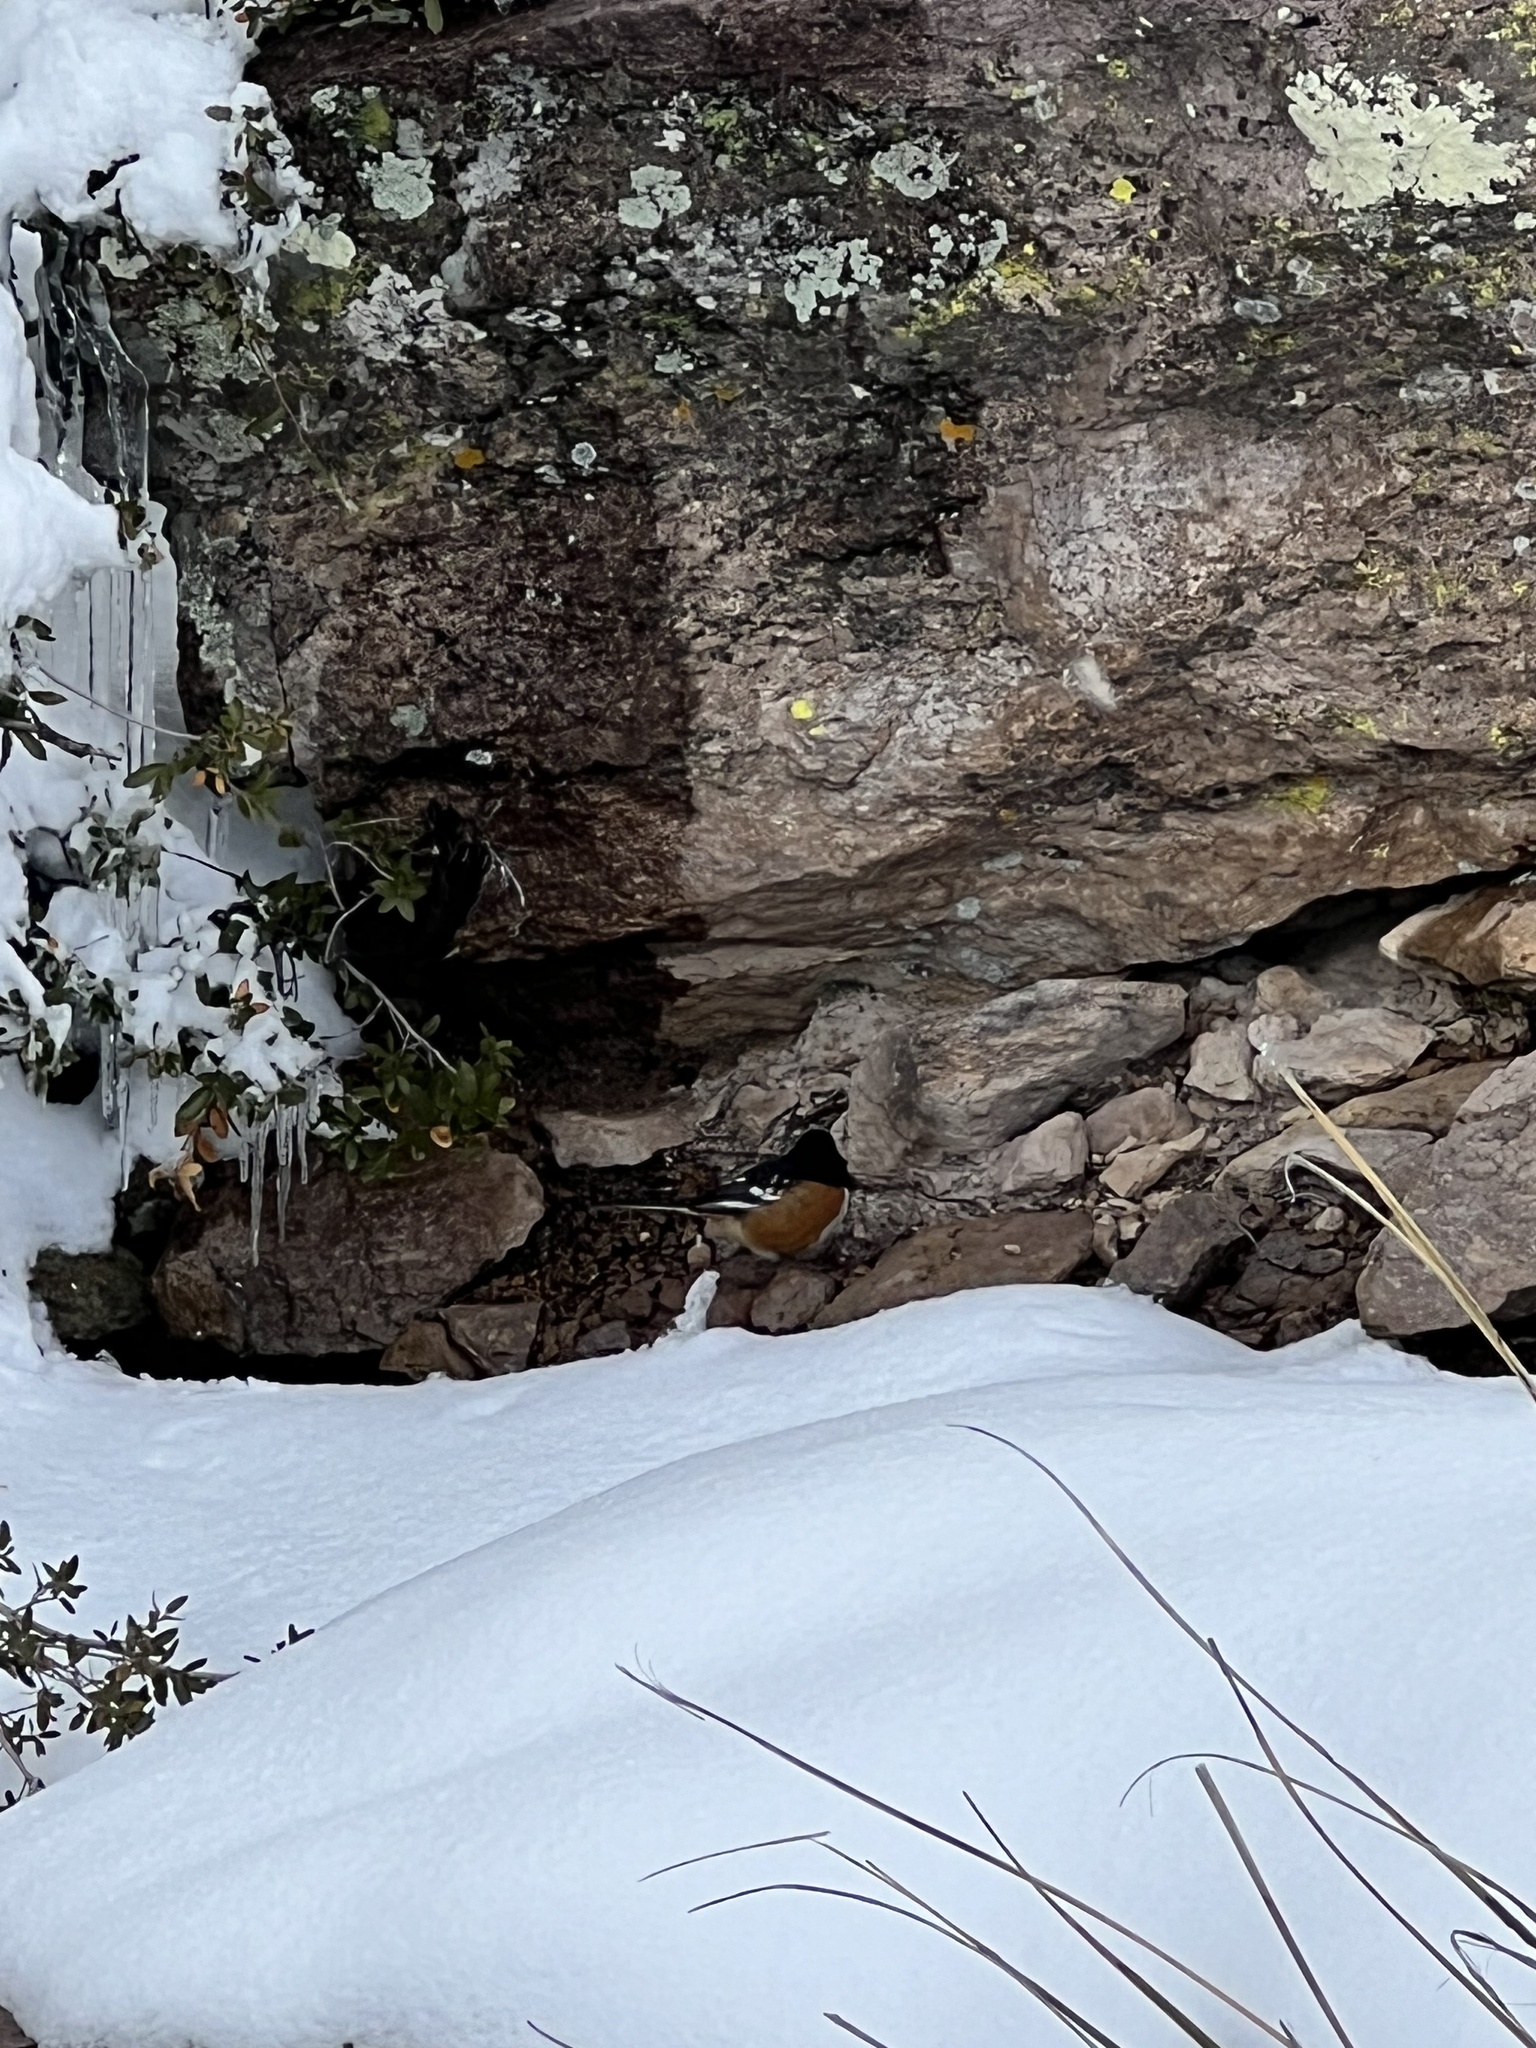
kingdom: Animalia
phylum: Chordata
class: Aves
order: Passeriformes
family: Passerellidae
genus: Pipilo
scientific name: Pipilo maculatus
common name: Spotted towhee
